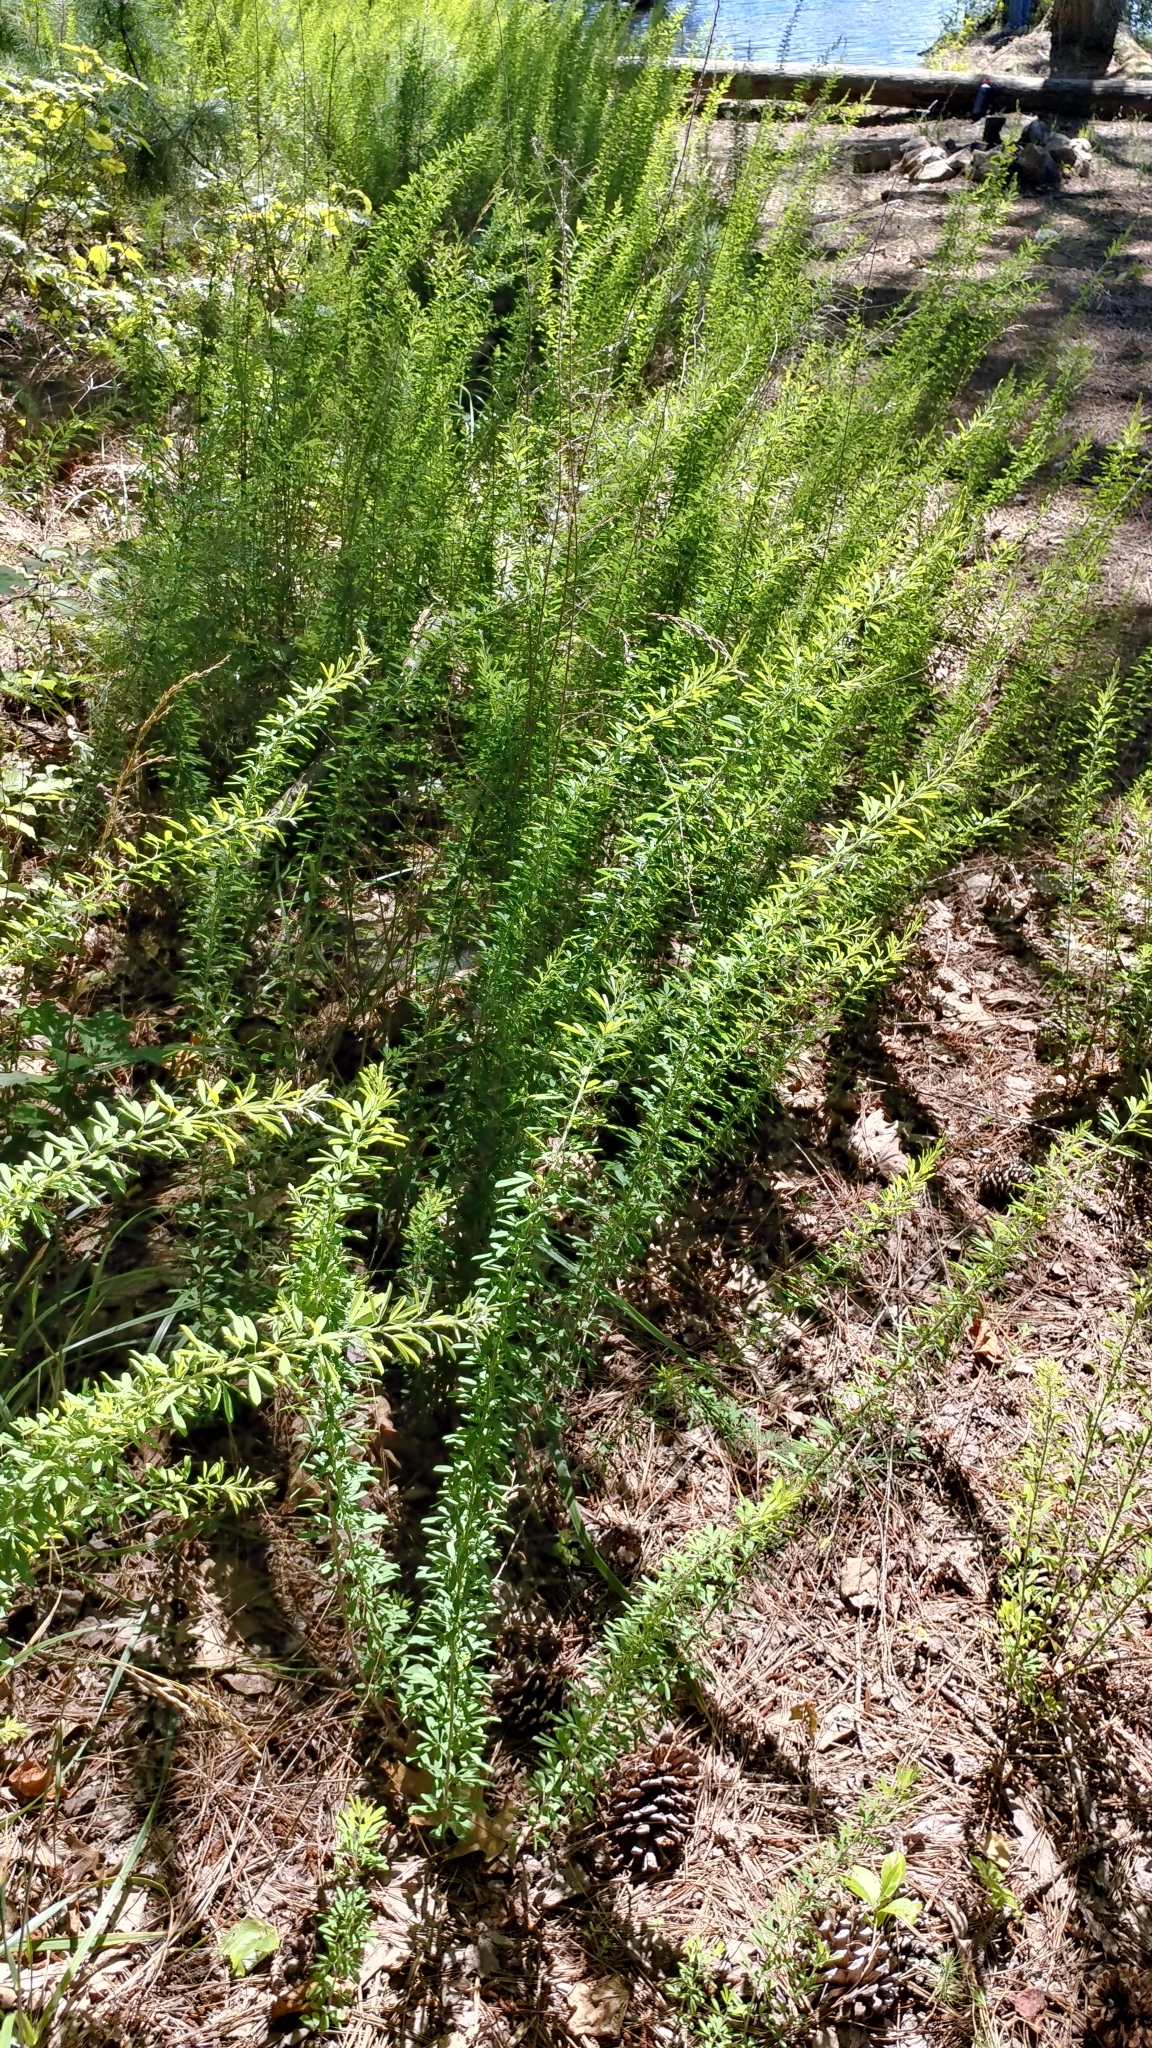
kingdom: Plantae
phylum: Tracheophyta
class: Magnoliopsida
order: Fabales
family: Fabaceae
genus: Lespedeza
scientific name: Lespedeza cuneata
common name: Chinese bush-clover
